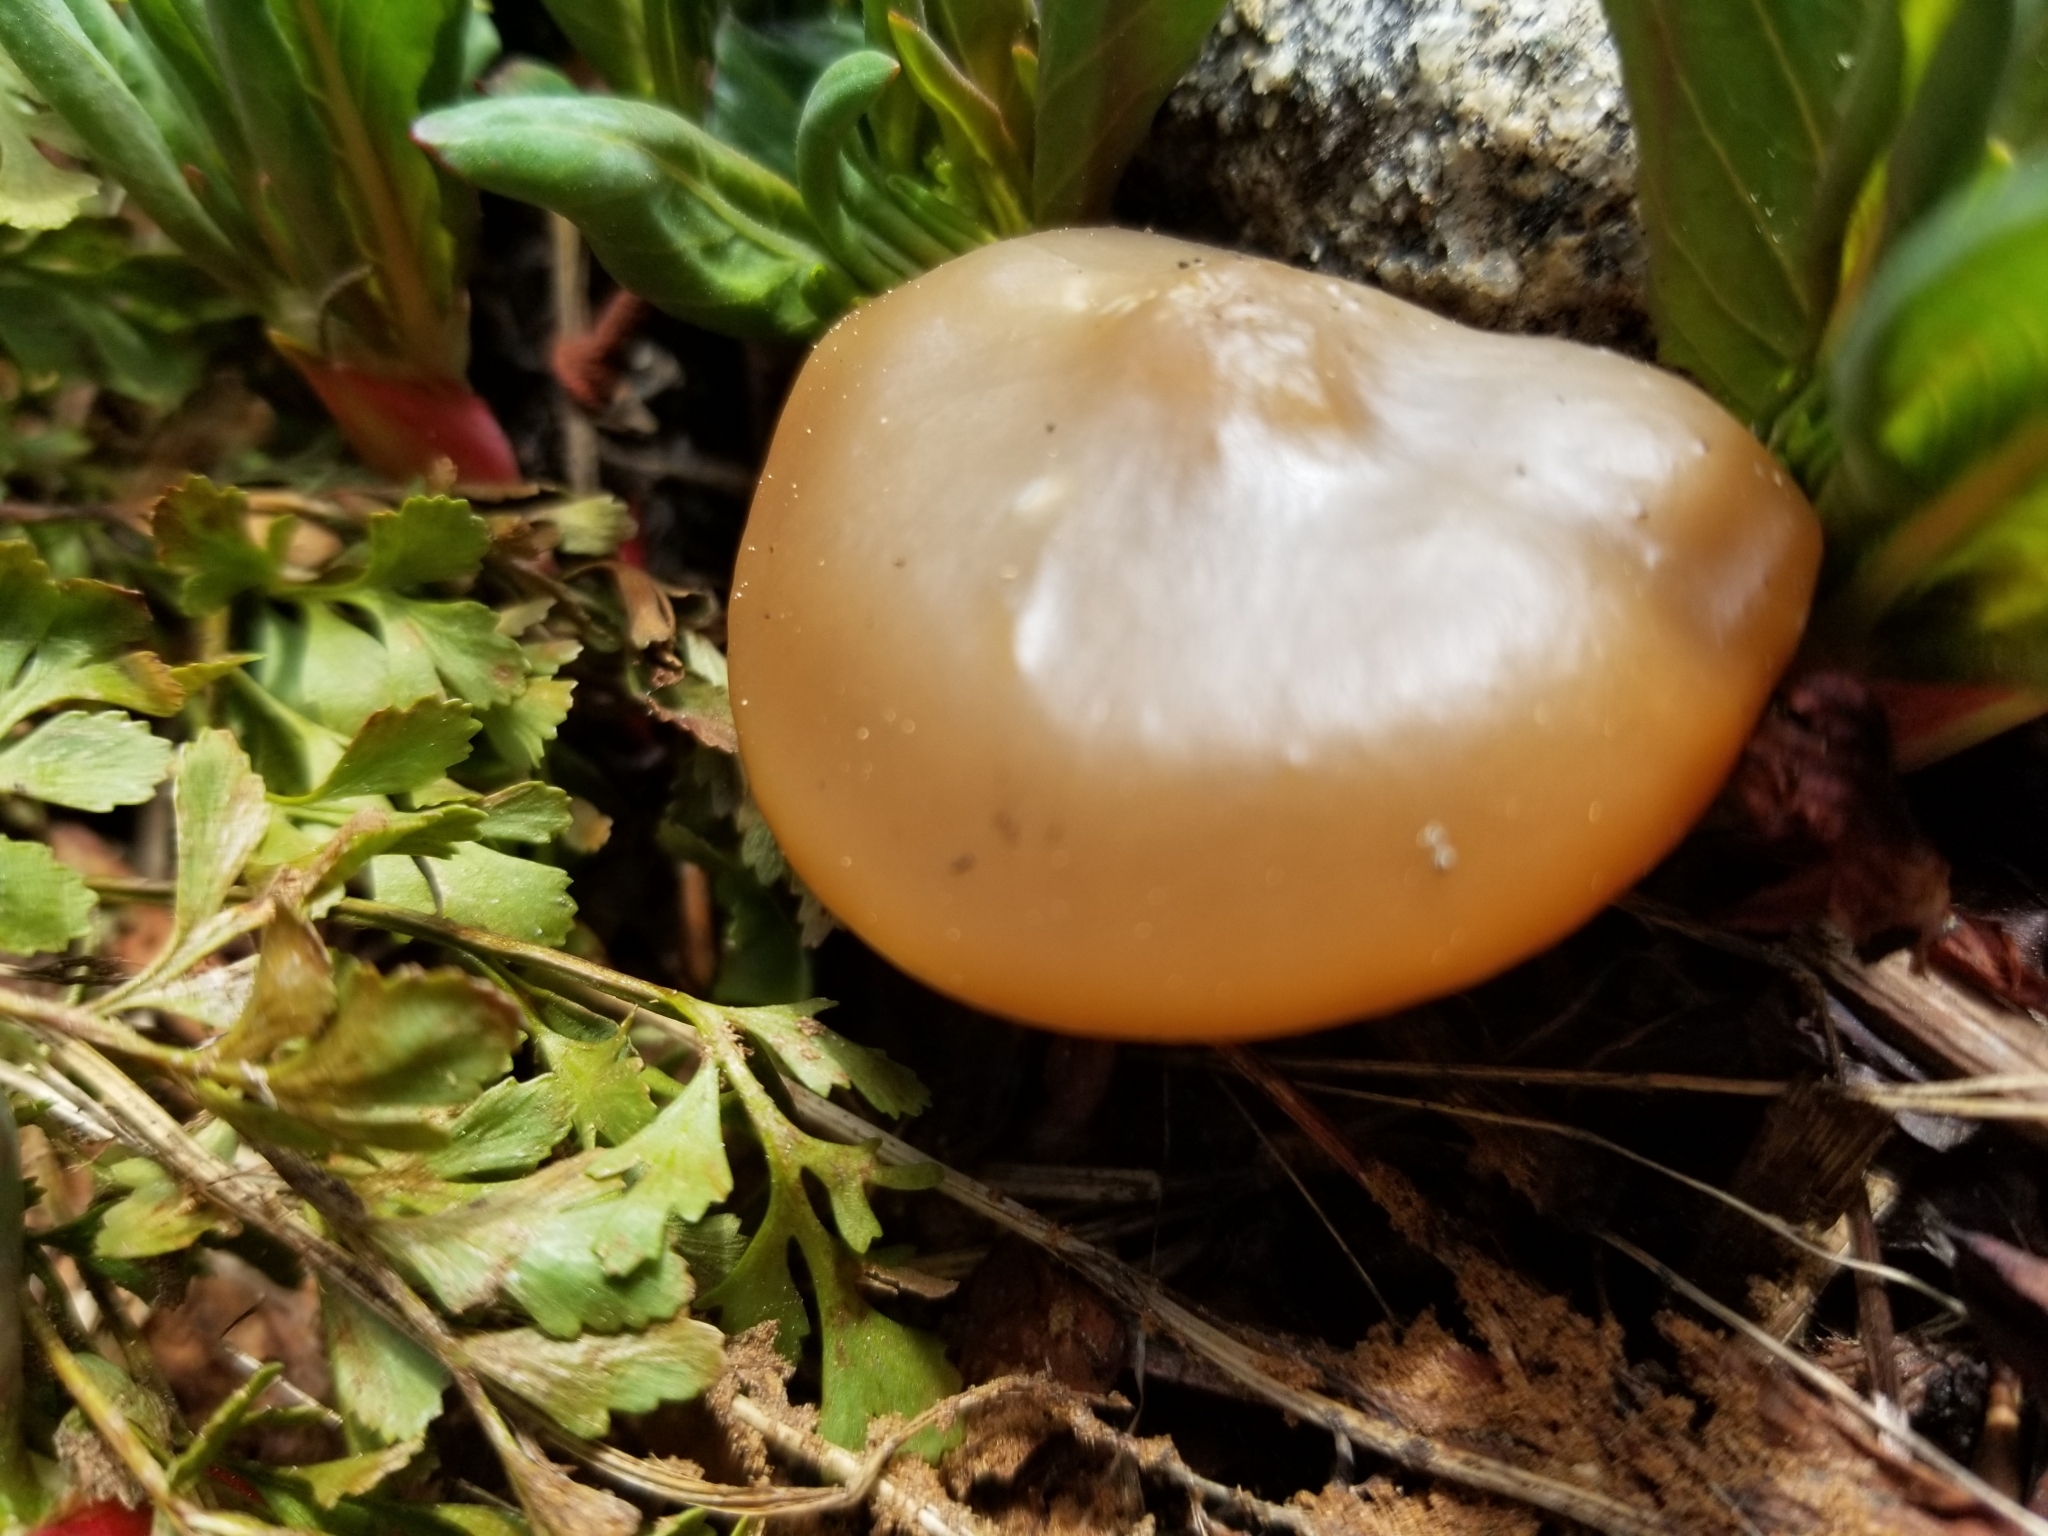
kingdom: Fungi
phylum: Basidiomycota
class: Agaricomycetes
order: Agaricales
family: Tricholomataceae
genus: Clitocybe
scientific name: Clitocybe glacialis
